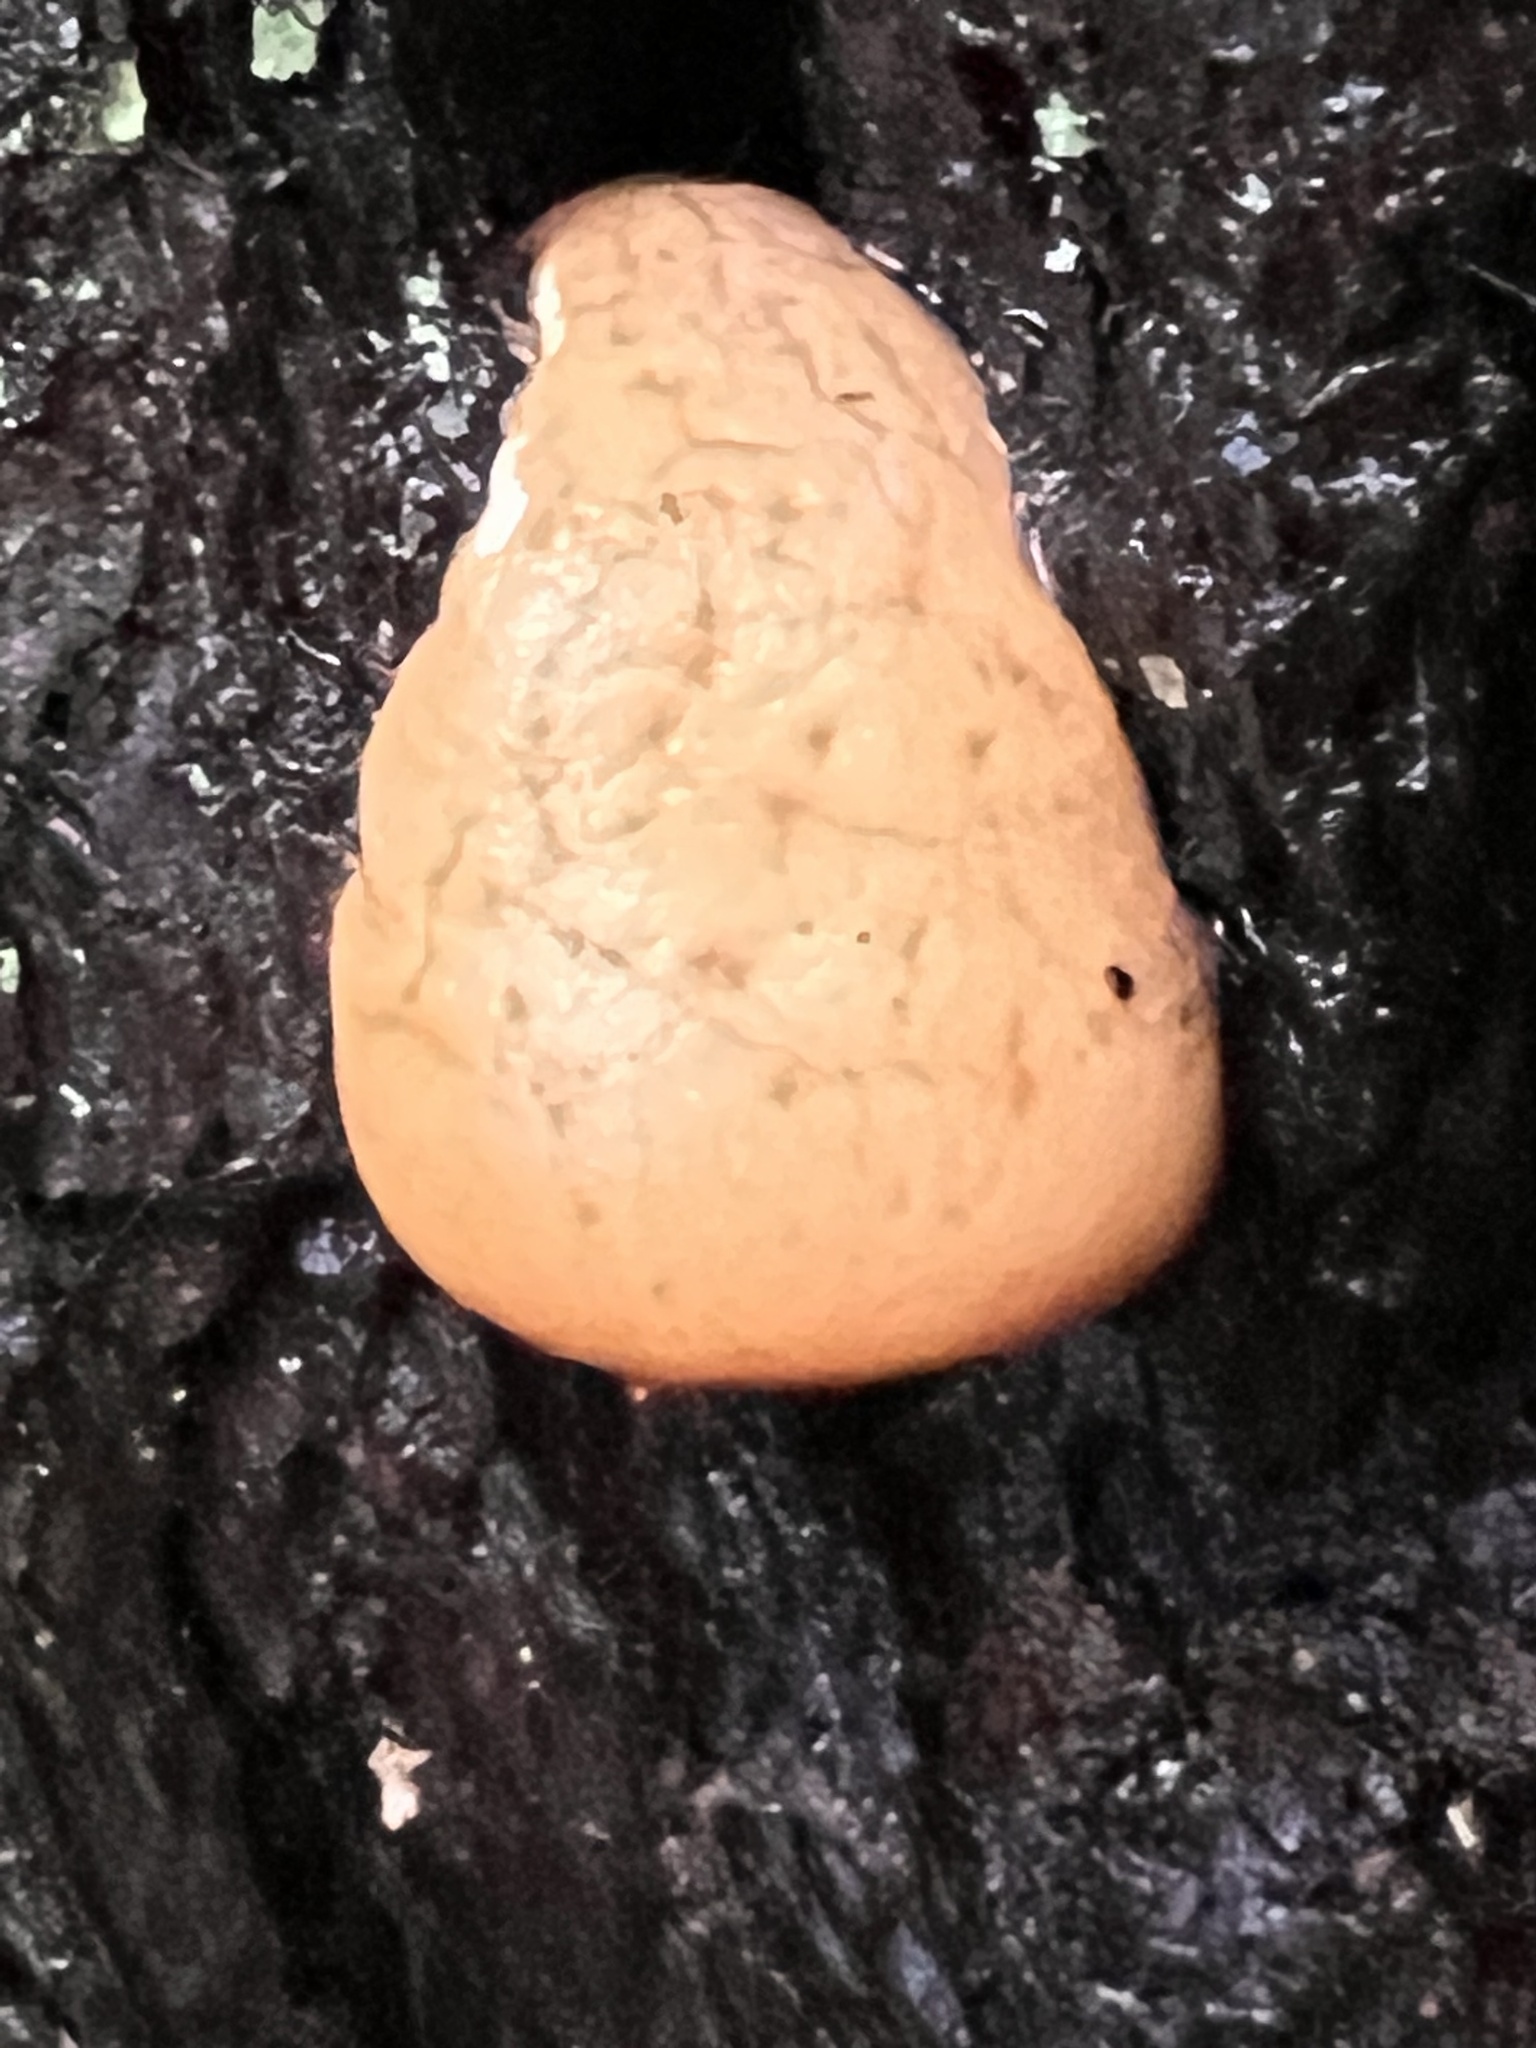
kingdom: Fungi
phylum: Basidiomycota
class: Agaricomycetes
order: Polyporales
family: Polyporaceae
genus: Cryptoporus
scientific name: Cryptoporus volvatus
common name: Veiled polypore
